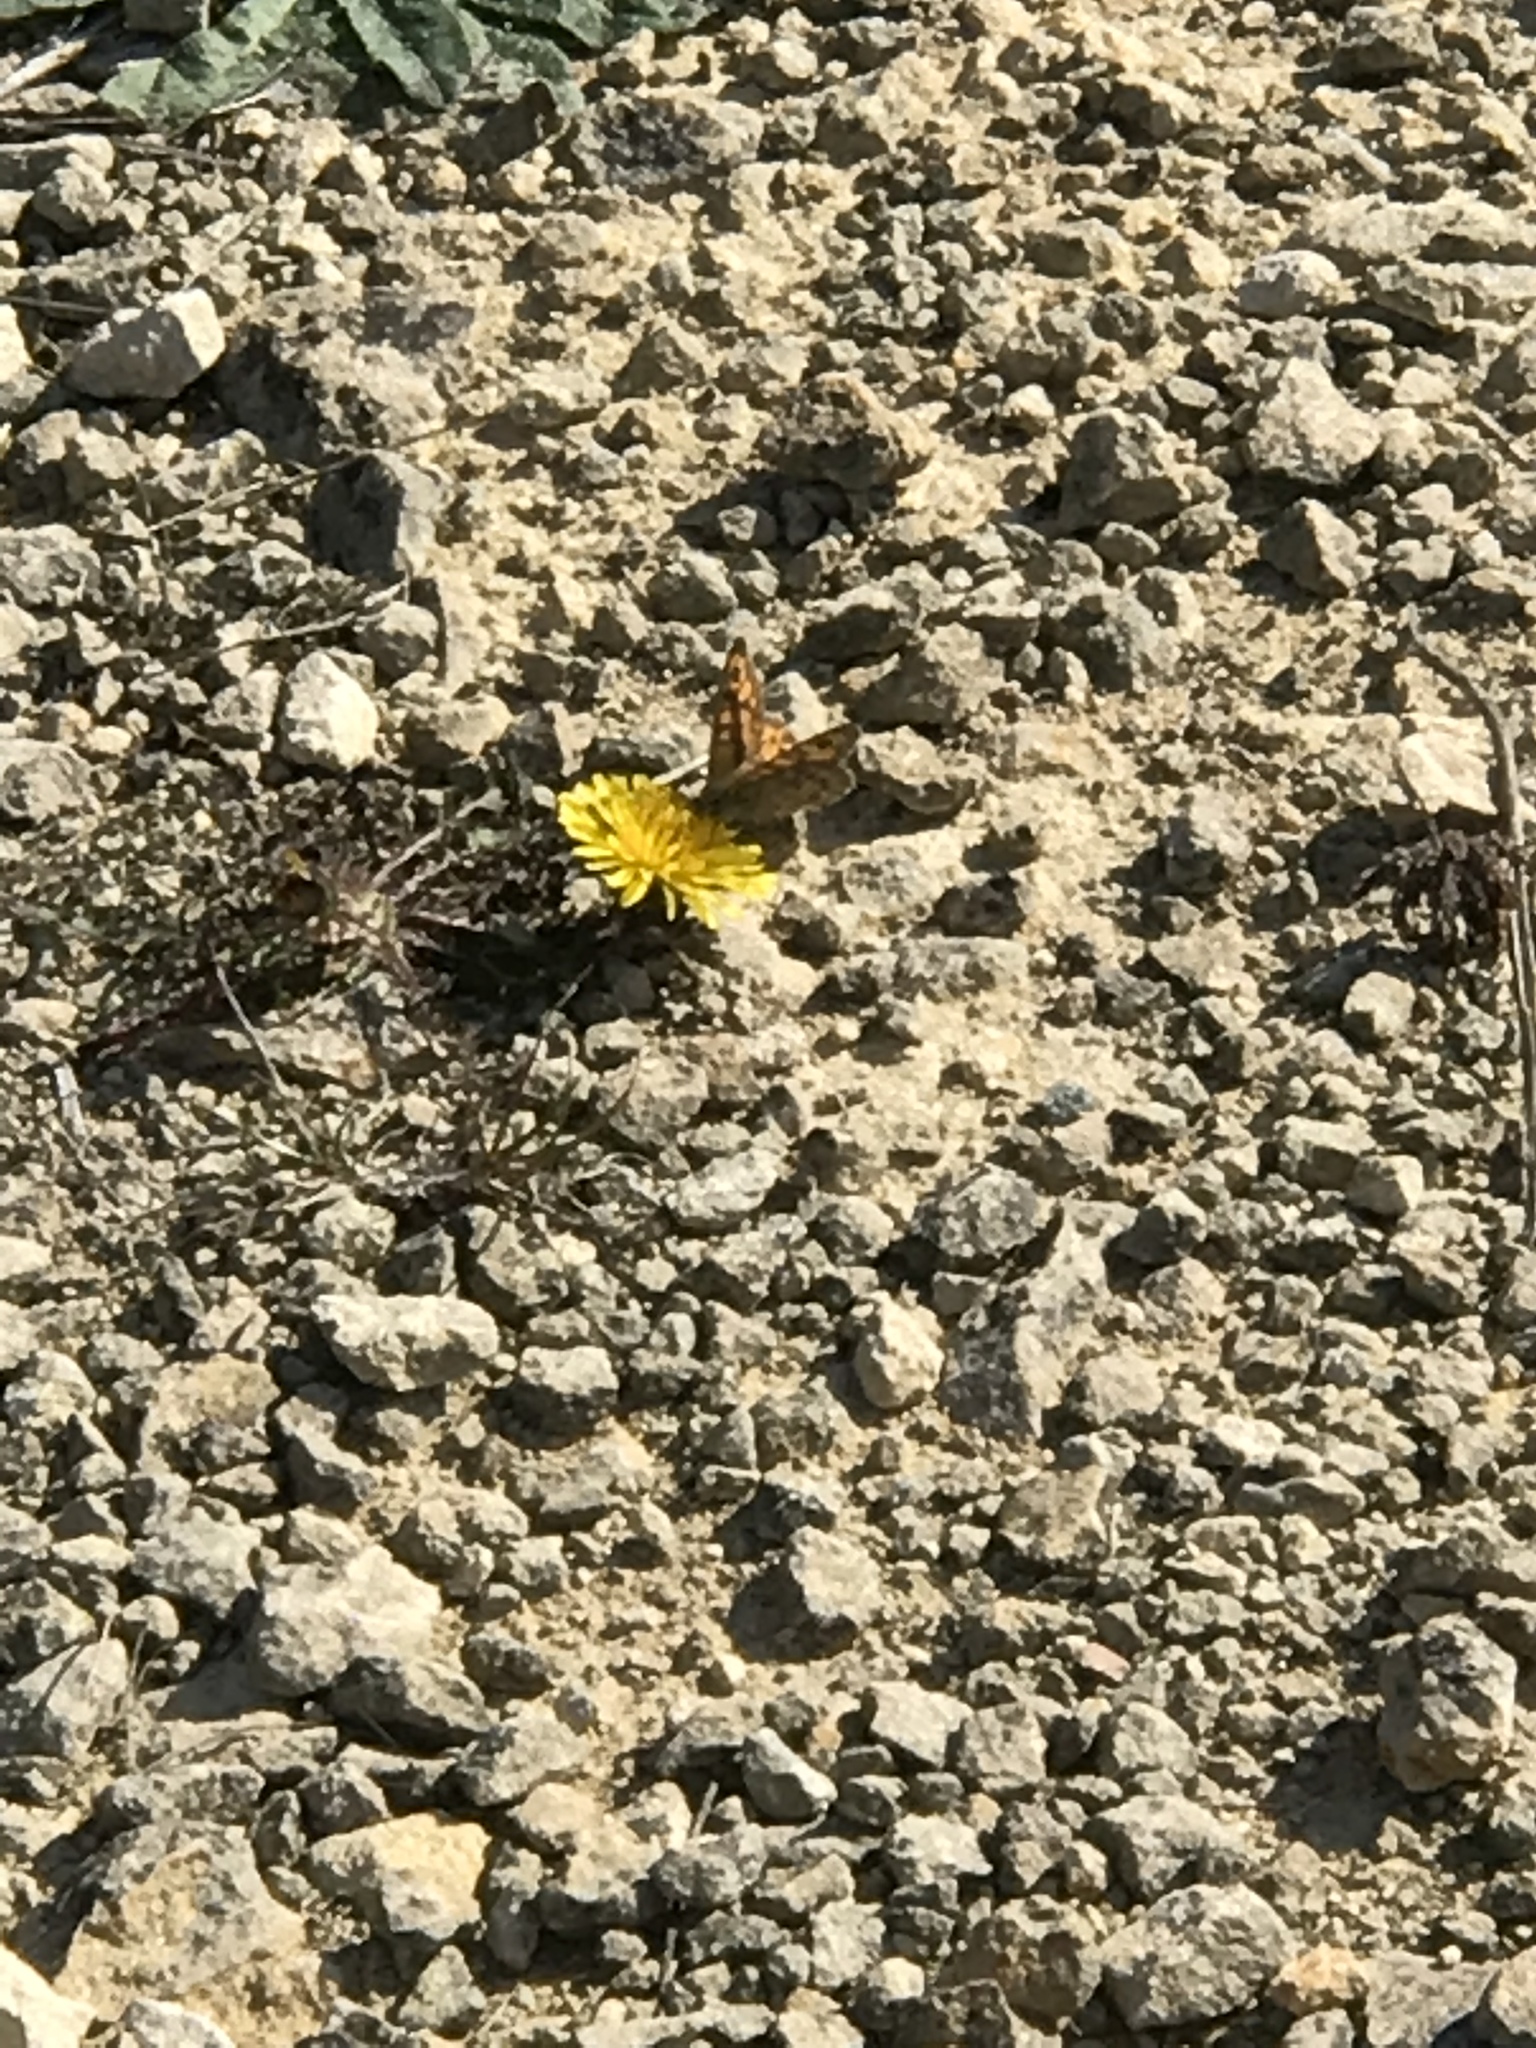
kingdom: Animalia
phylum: Arthropoda
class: Insecta
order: Lepidoptera
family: Nymphalidae
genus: Pararge
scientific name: Pararge Lasiommata megera
